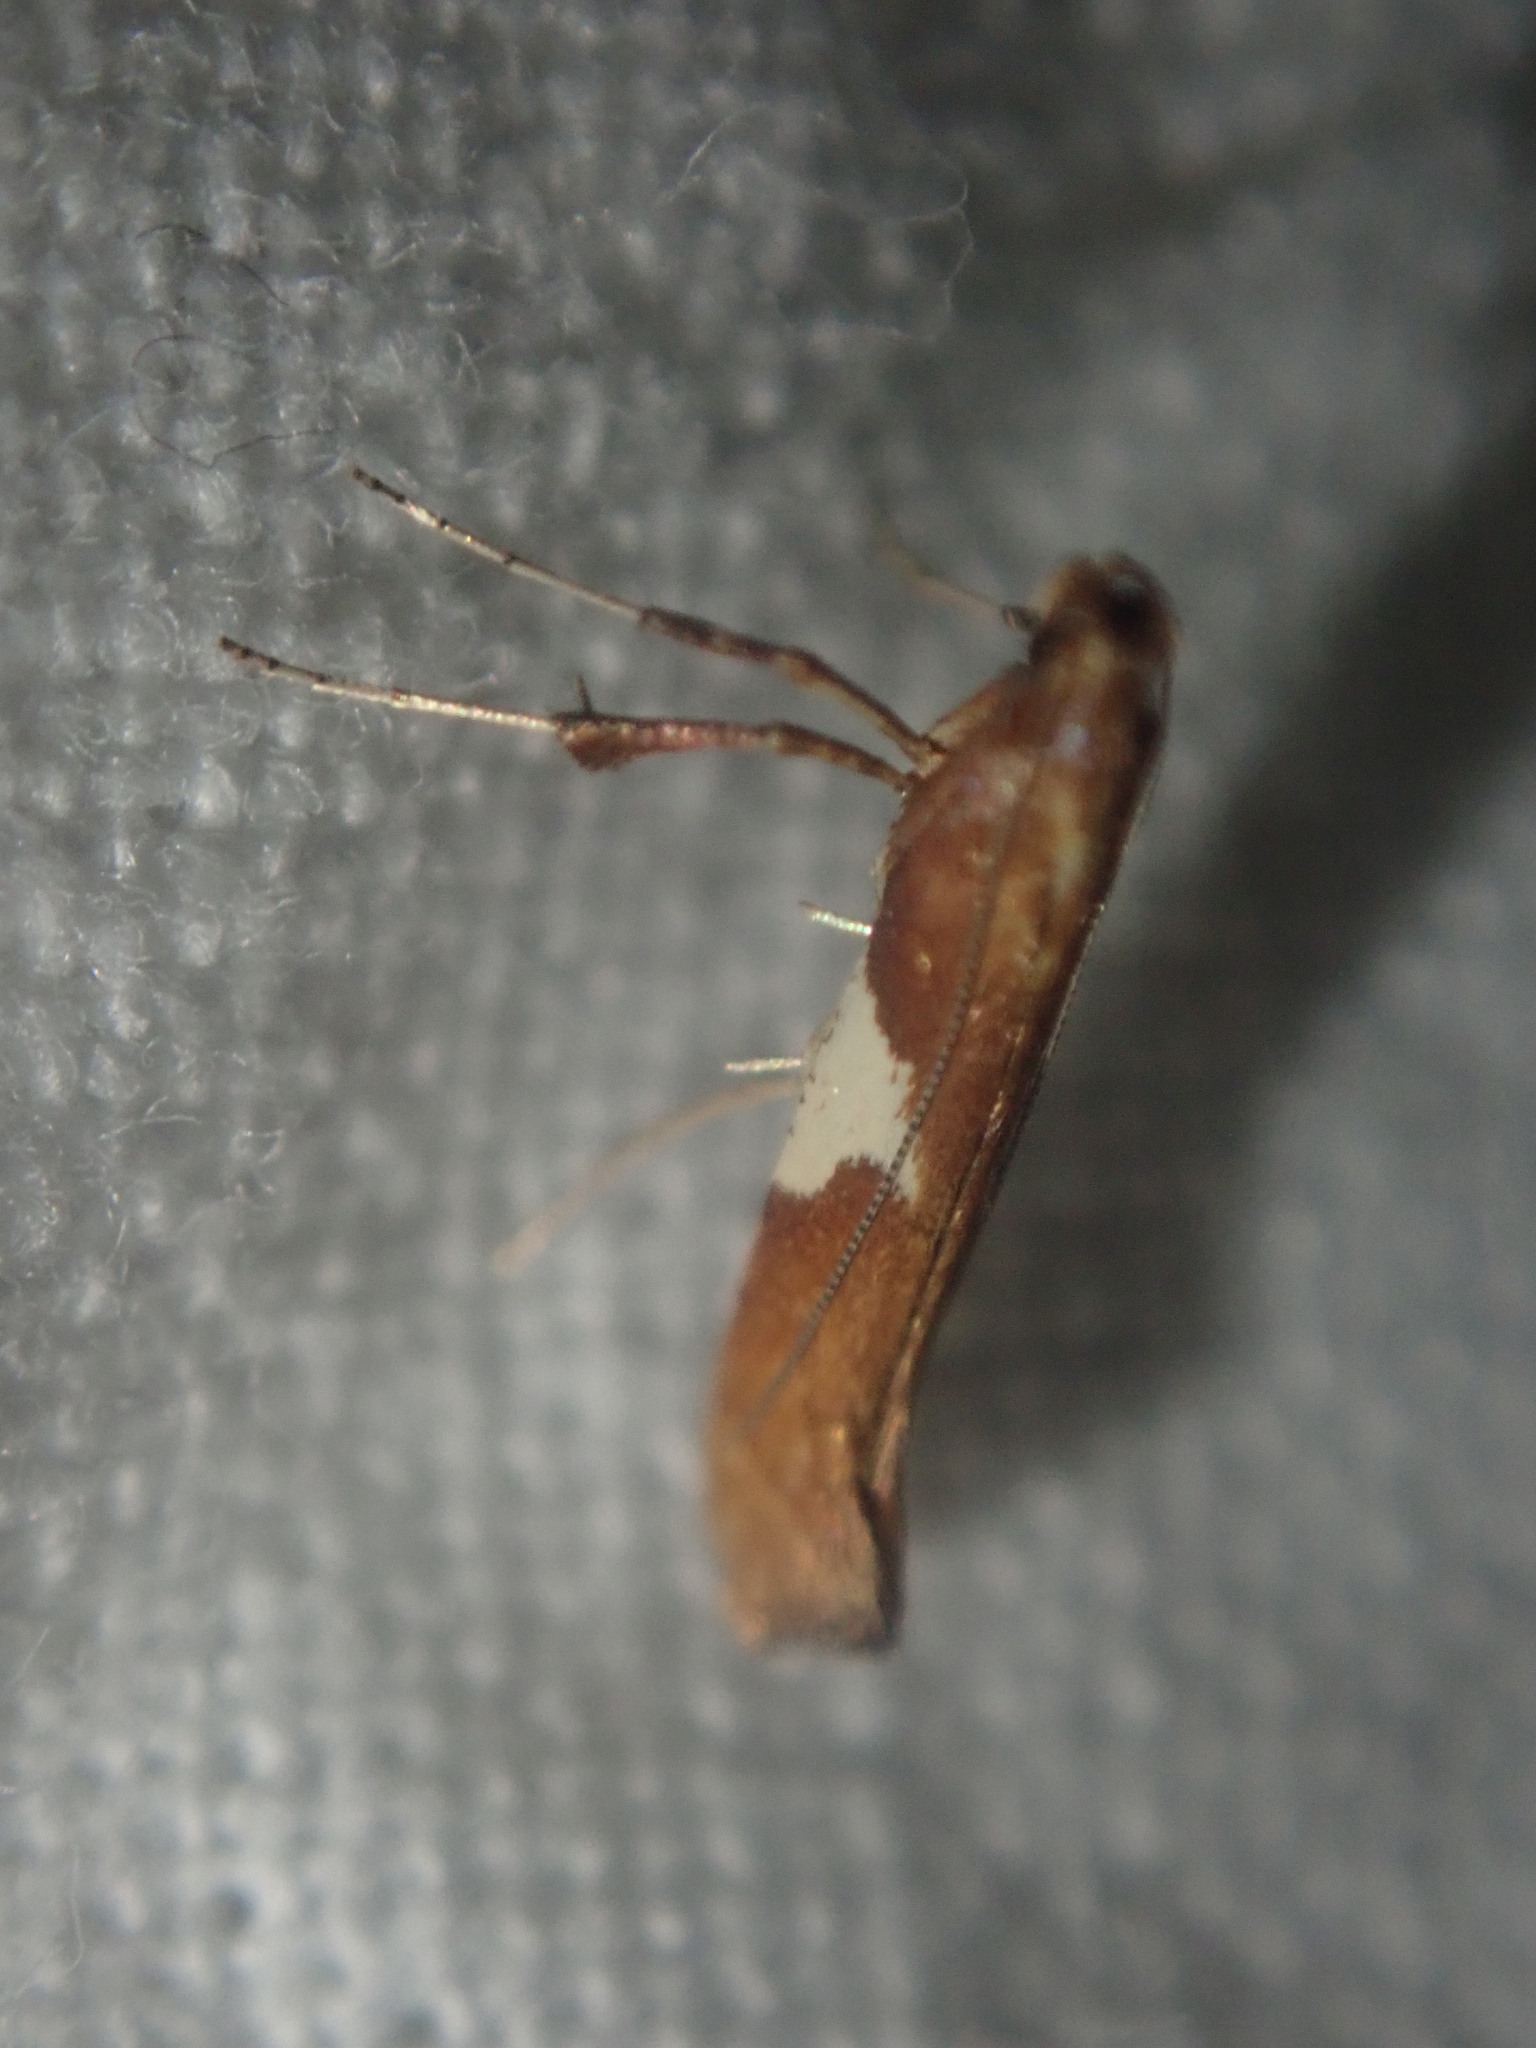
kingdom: Animalia
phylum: Arthropoda
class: Insecta
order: Lepidoptera
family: Gracillariidae
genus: Caloptilia
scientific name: Caloptilia stigmatella
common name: White-triangle slender
